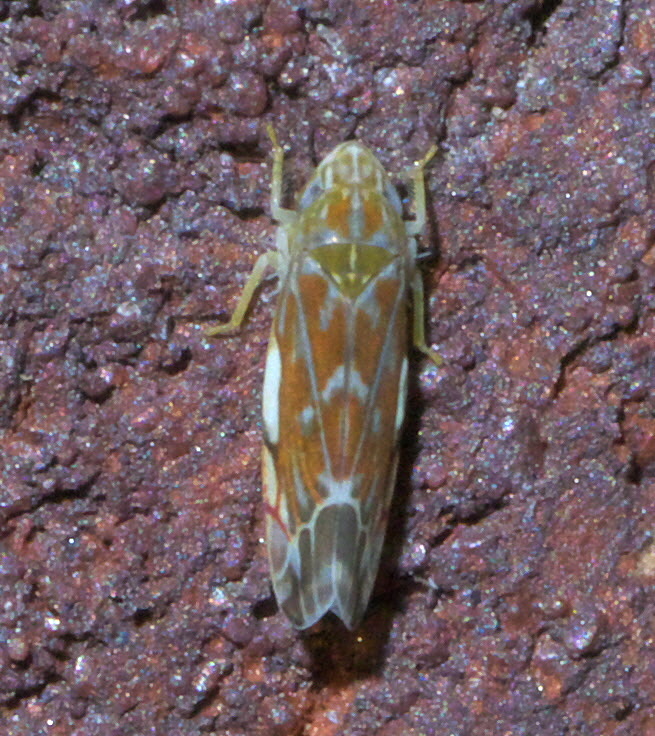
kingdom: Animalia
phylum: Arthropoda
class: Insecta
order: Hemiptera
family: Cicadellidae
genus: Erasmoneura
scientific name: Erasmoneura vulnerata
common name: The wounded leafhopper
